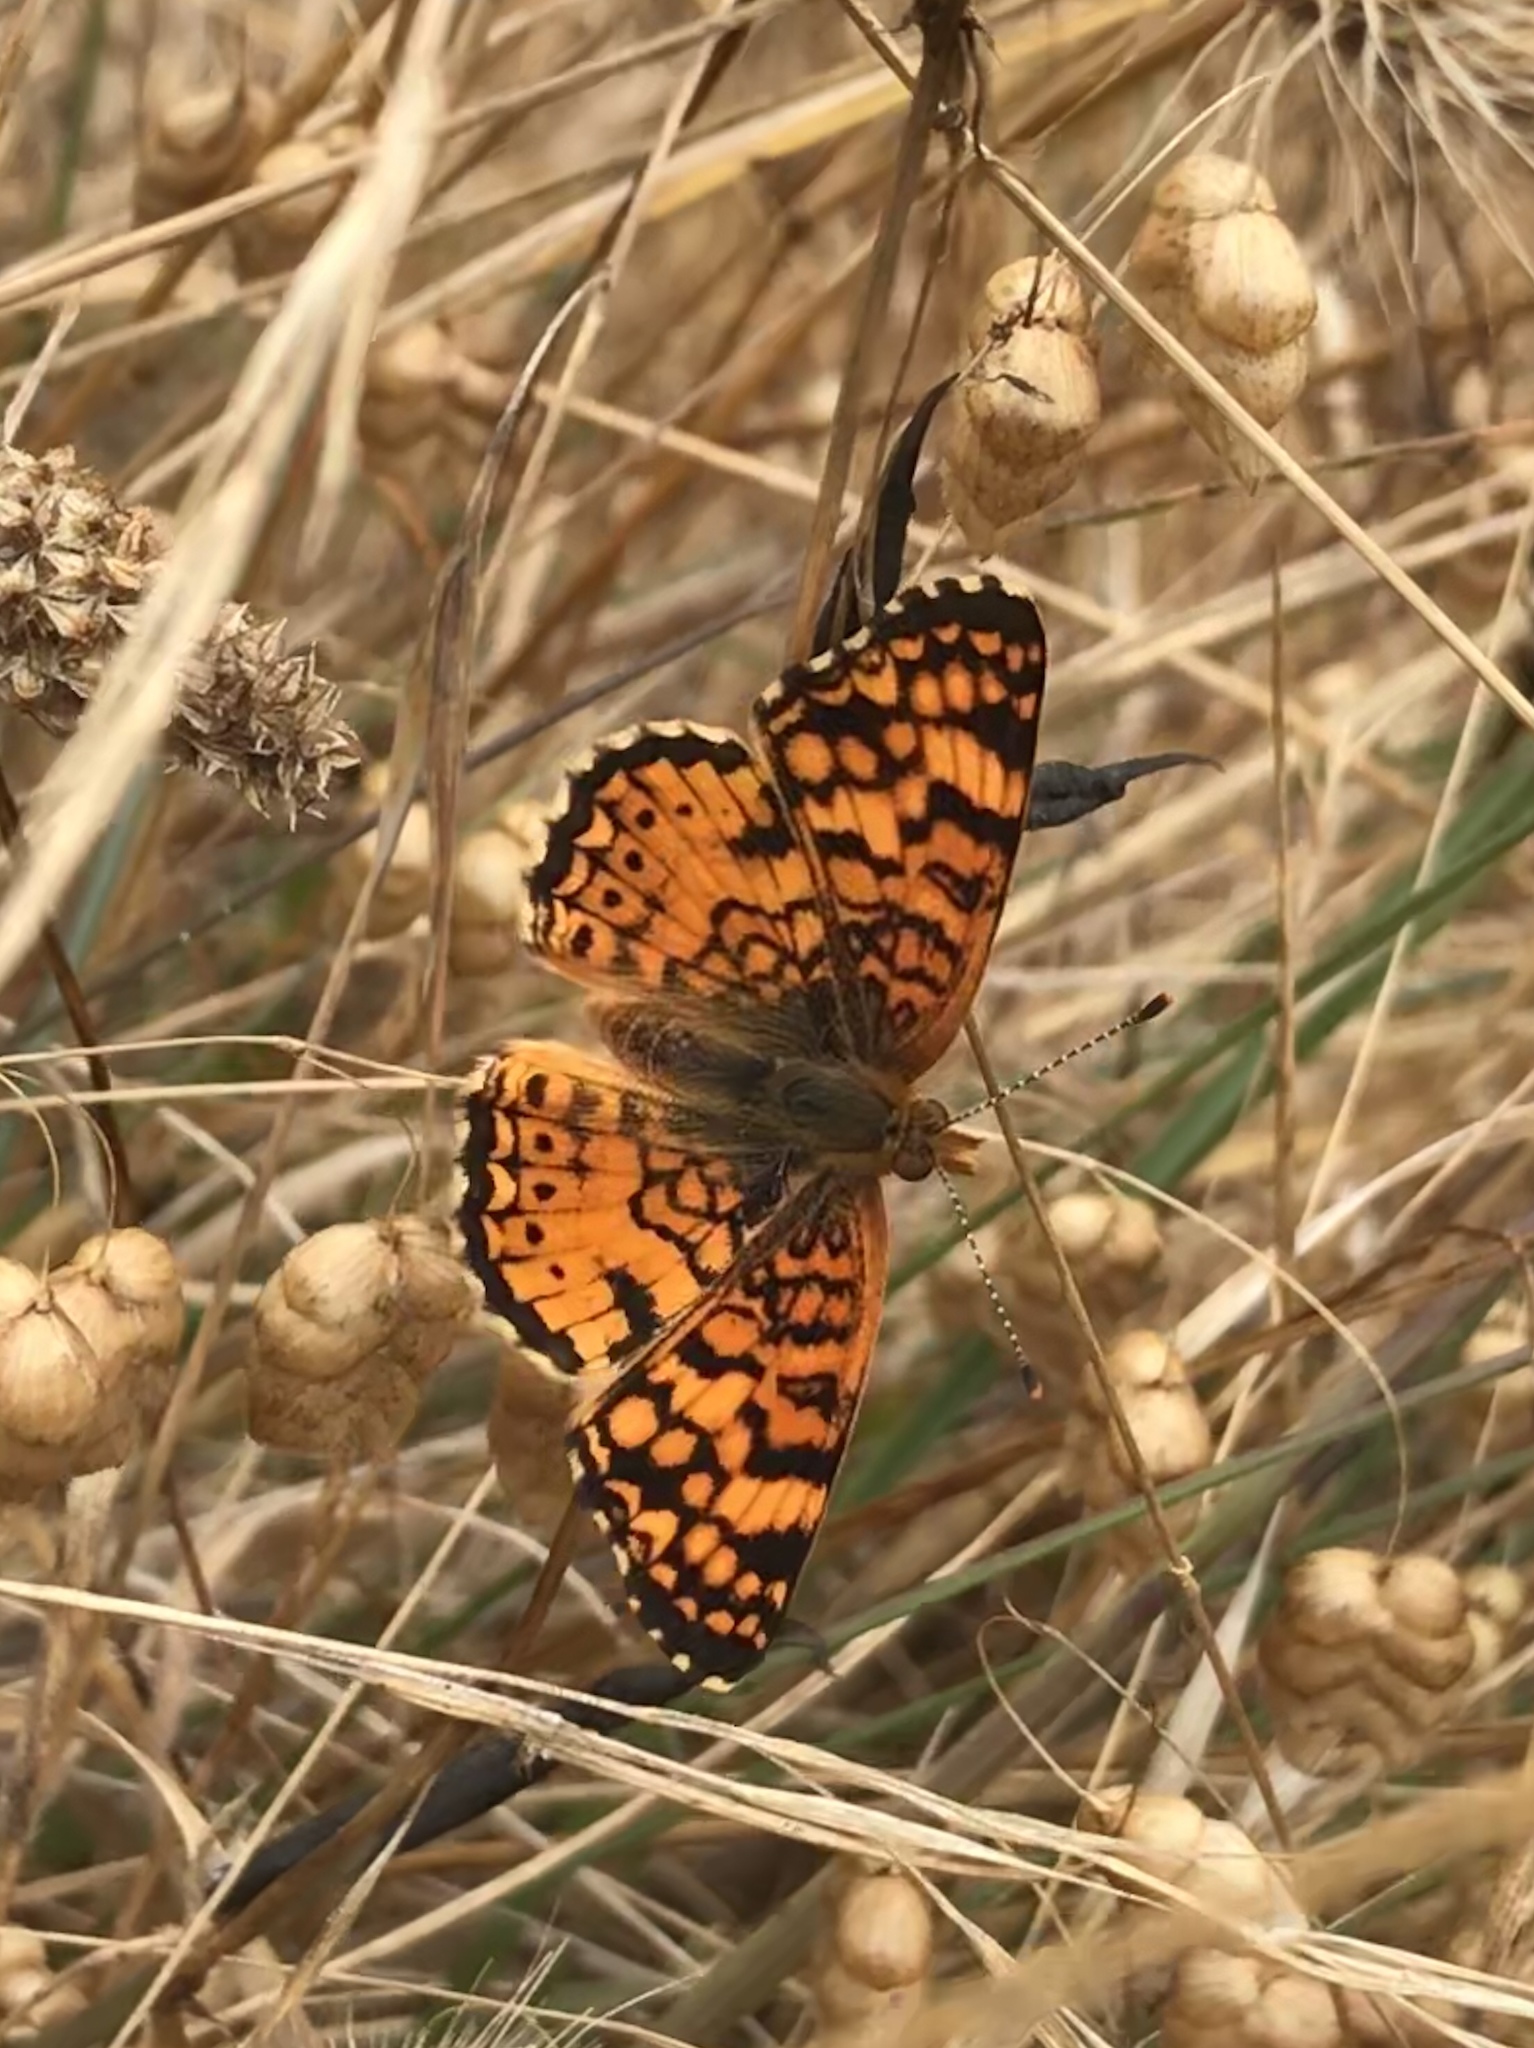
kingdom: Animalia
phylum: Arthropoda
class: Insecta
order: Lepidoptera
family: Nymphalidae
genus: Eresia
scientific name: Eresia aveyrona
